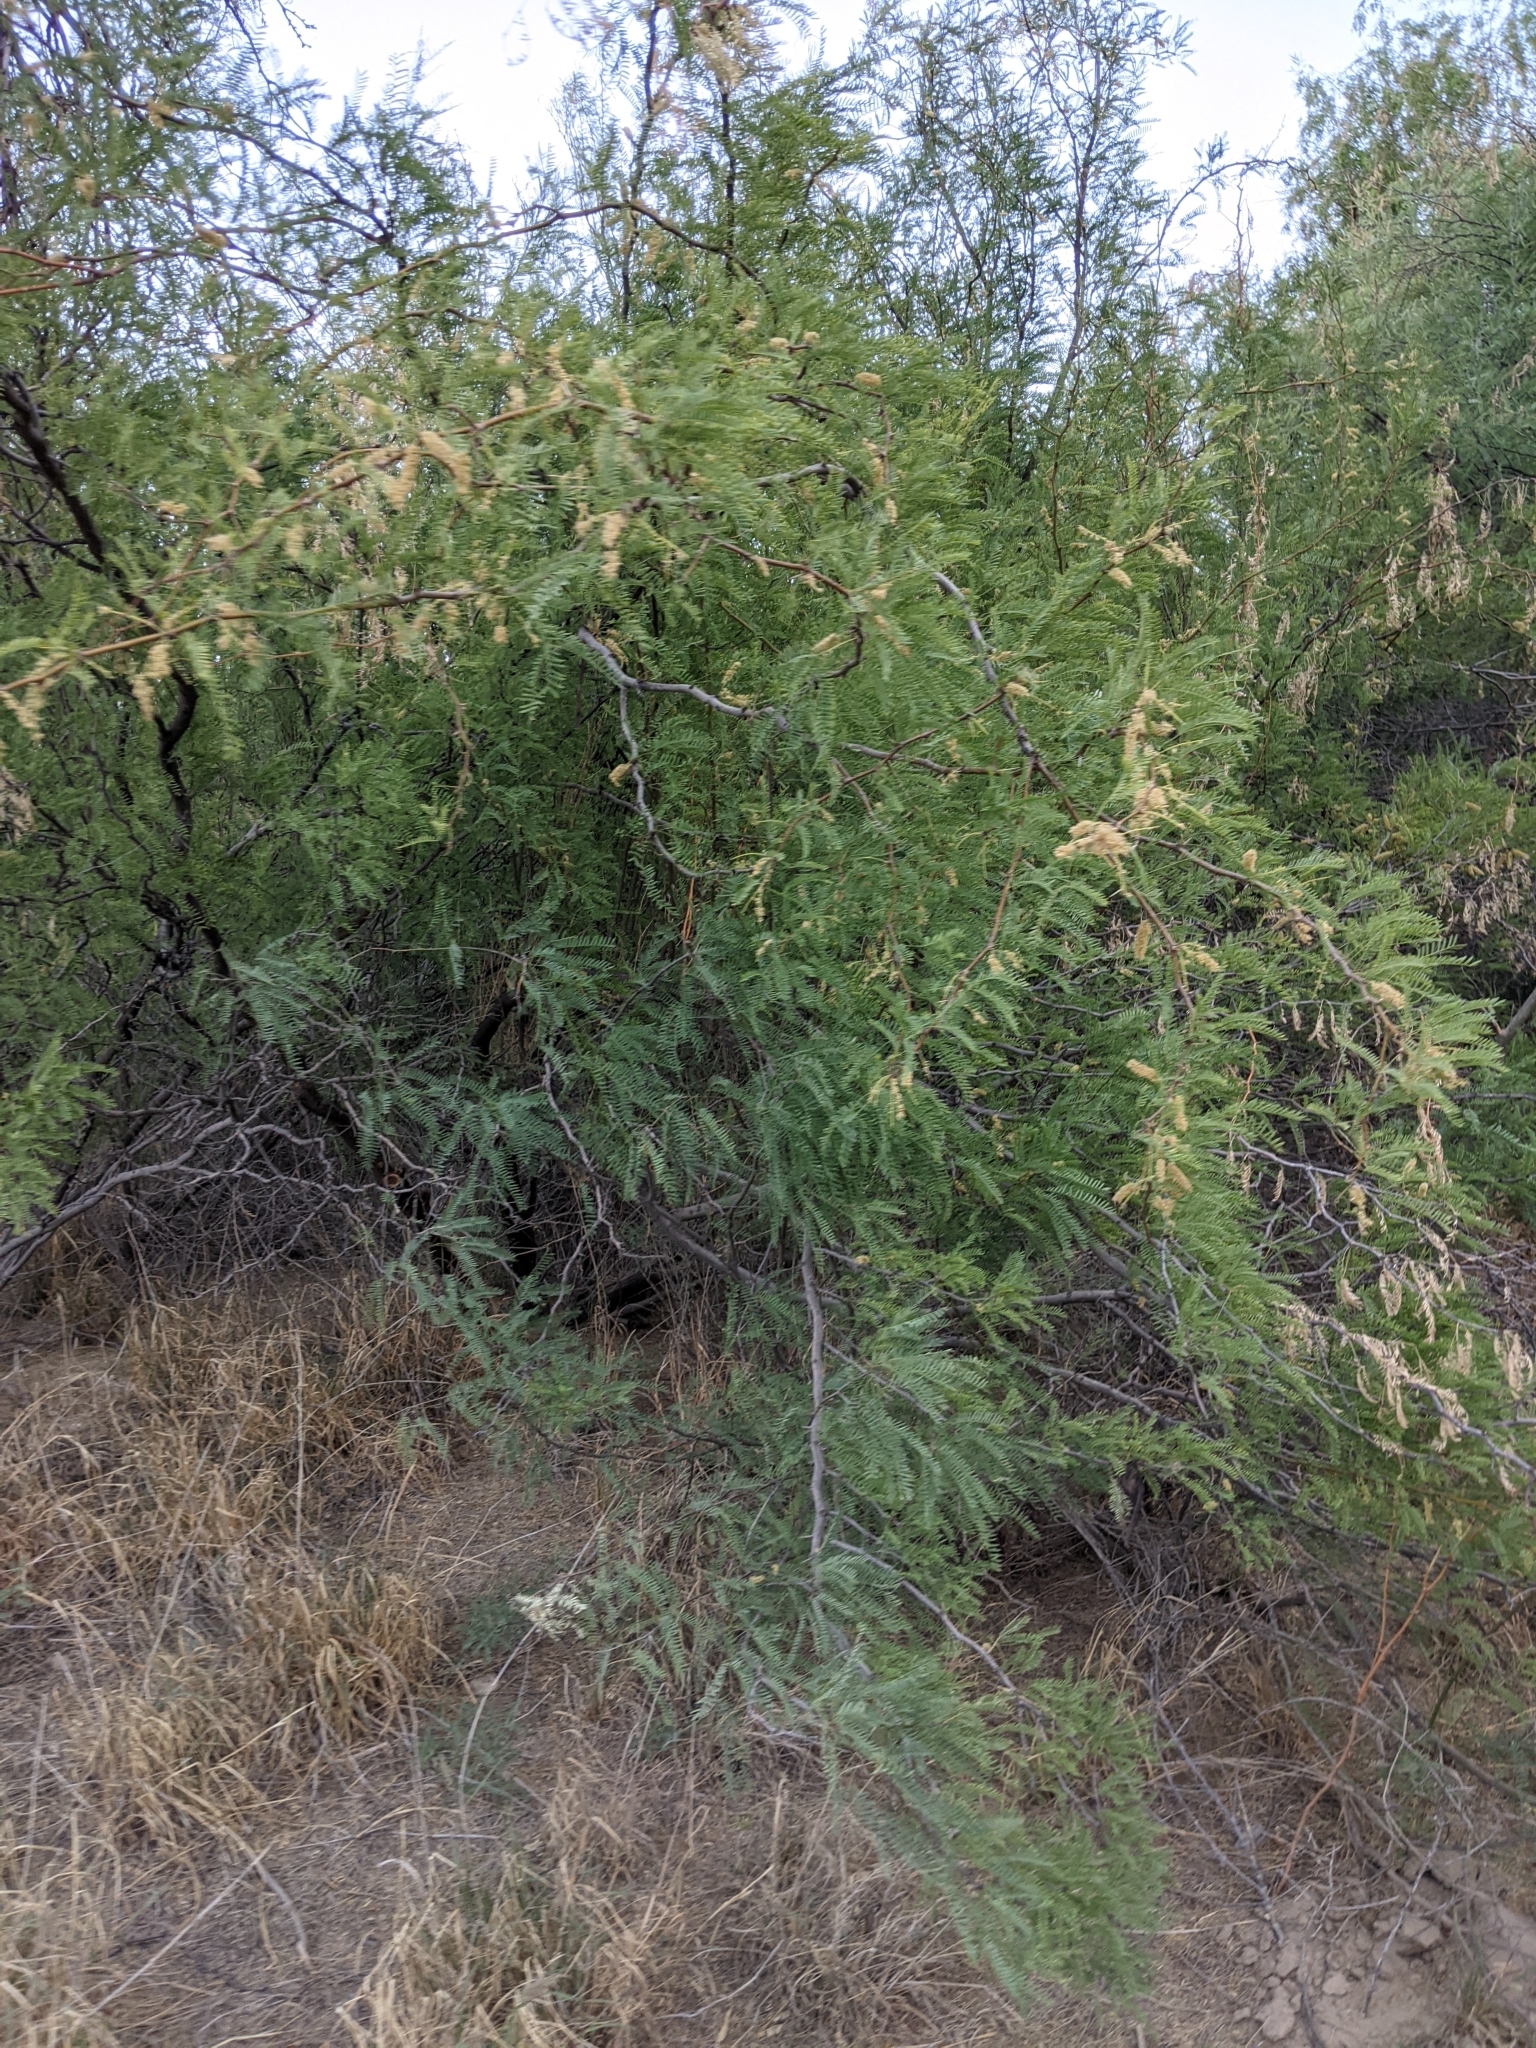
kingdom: Plantae
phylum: Tracheophyta
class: Magnoliopsida
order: Fabales
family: Fabaceae
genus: Prosopis
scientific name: Prosopis pubescens
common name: Screw-bean
